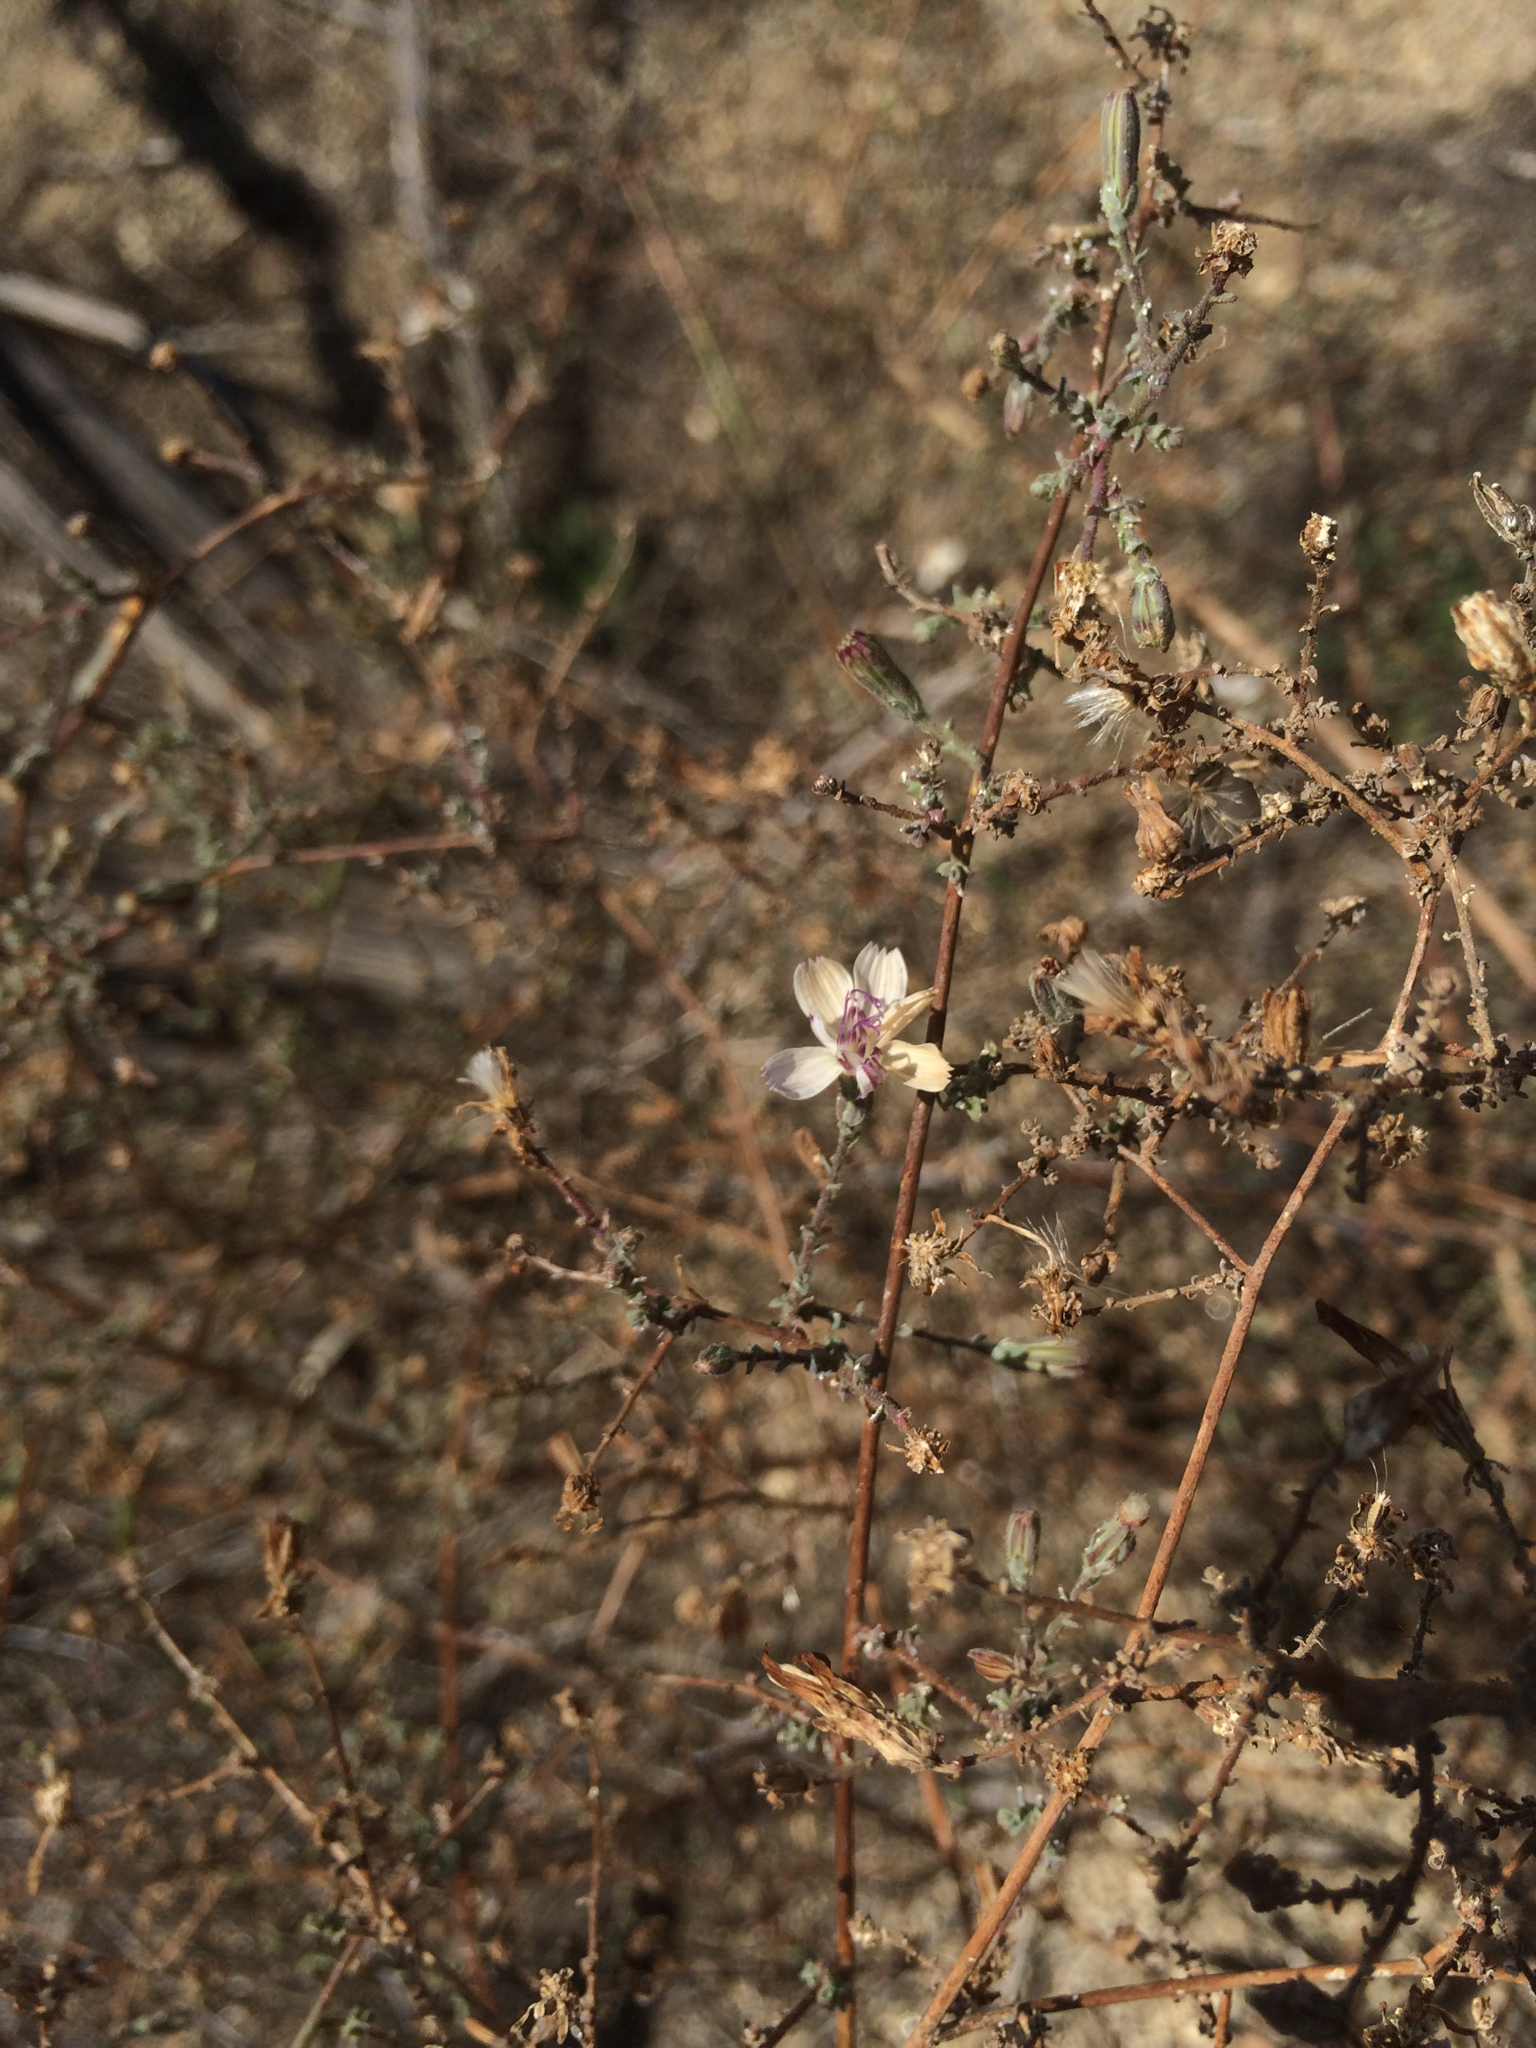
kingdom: Plantae
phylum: Tracheophyta
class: Magnoliopsida
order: Asterales
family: Asteraceae
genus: Stephanomeria
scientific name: Stephanomeria virgata
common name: Virgate wirelettuce
